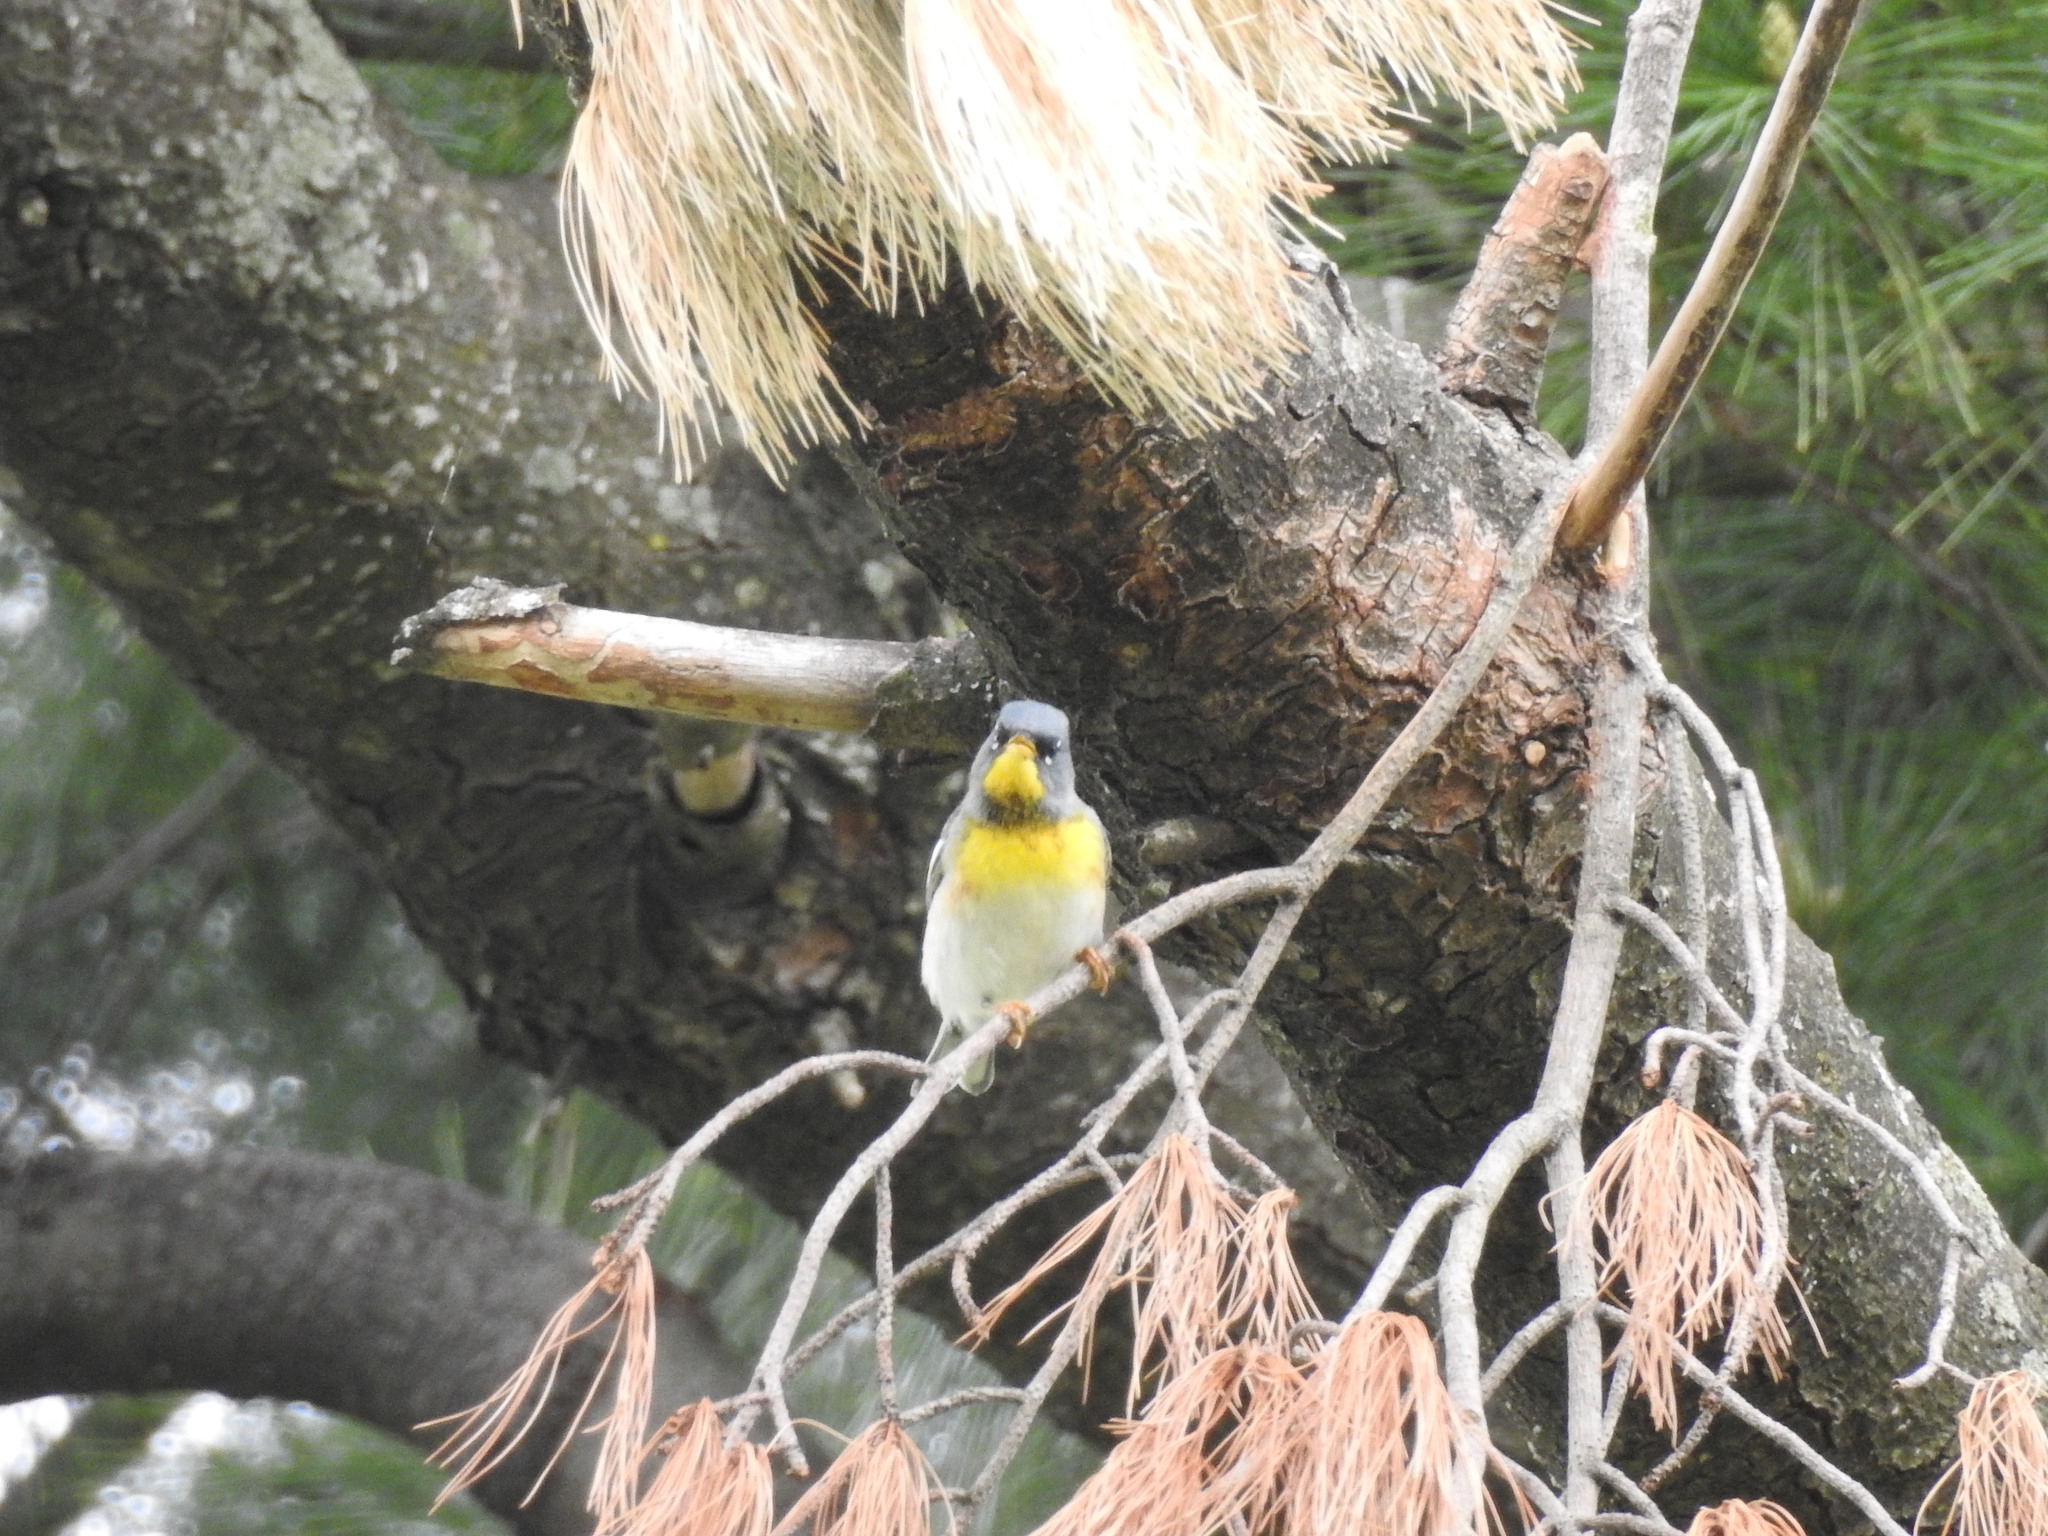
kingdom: Animalia
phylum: Chordata
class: Aves
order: Passeriformes
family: Parulidae
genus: Setophaga
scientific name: Setophaga americana
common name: Northern parula
